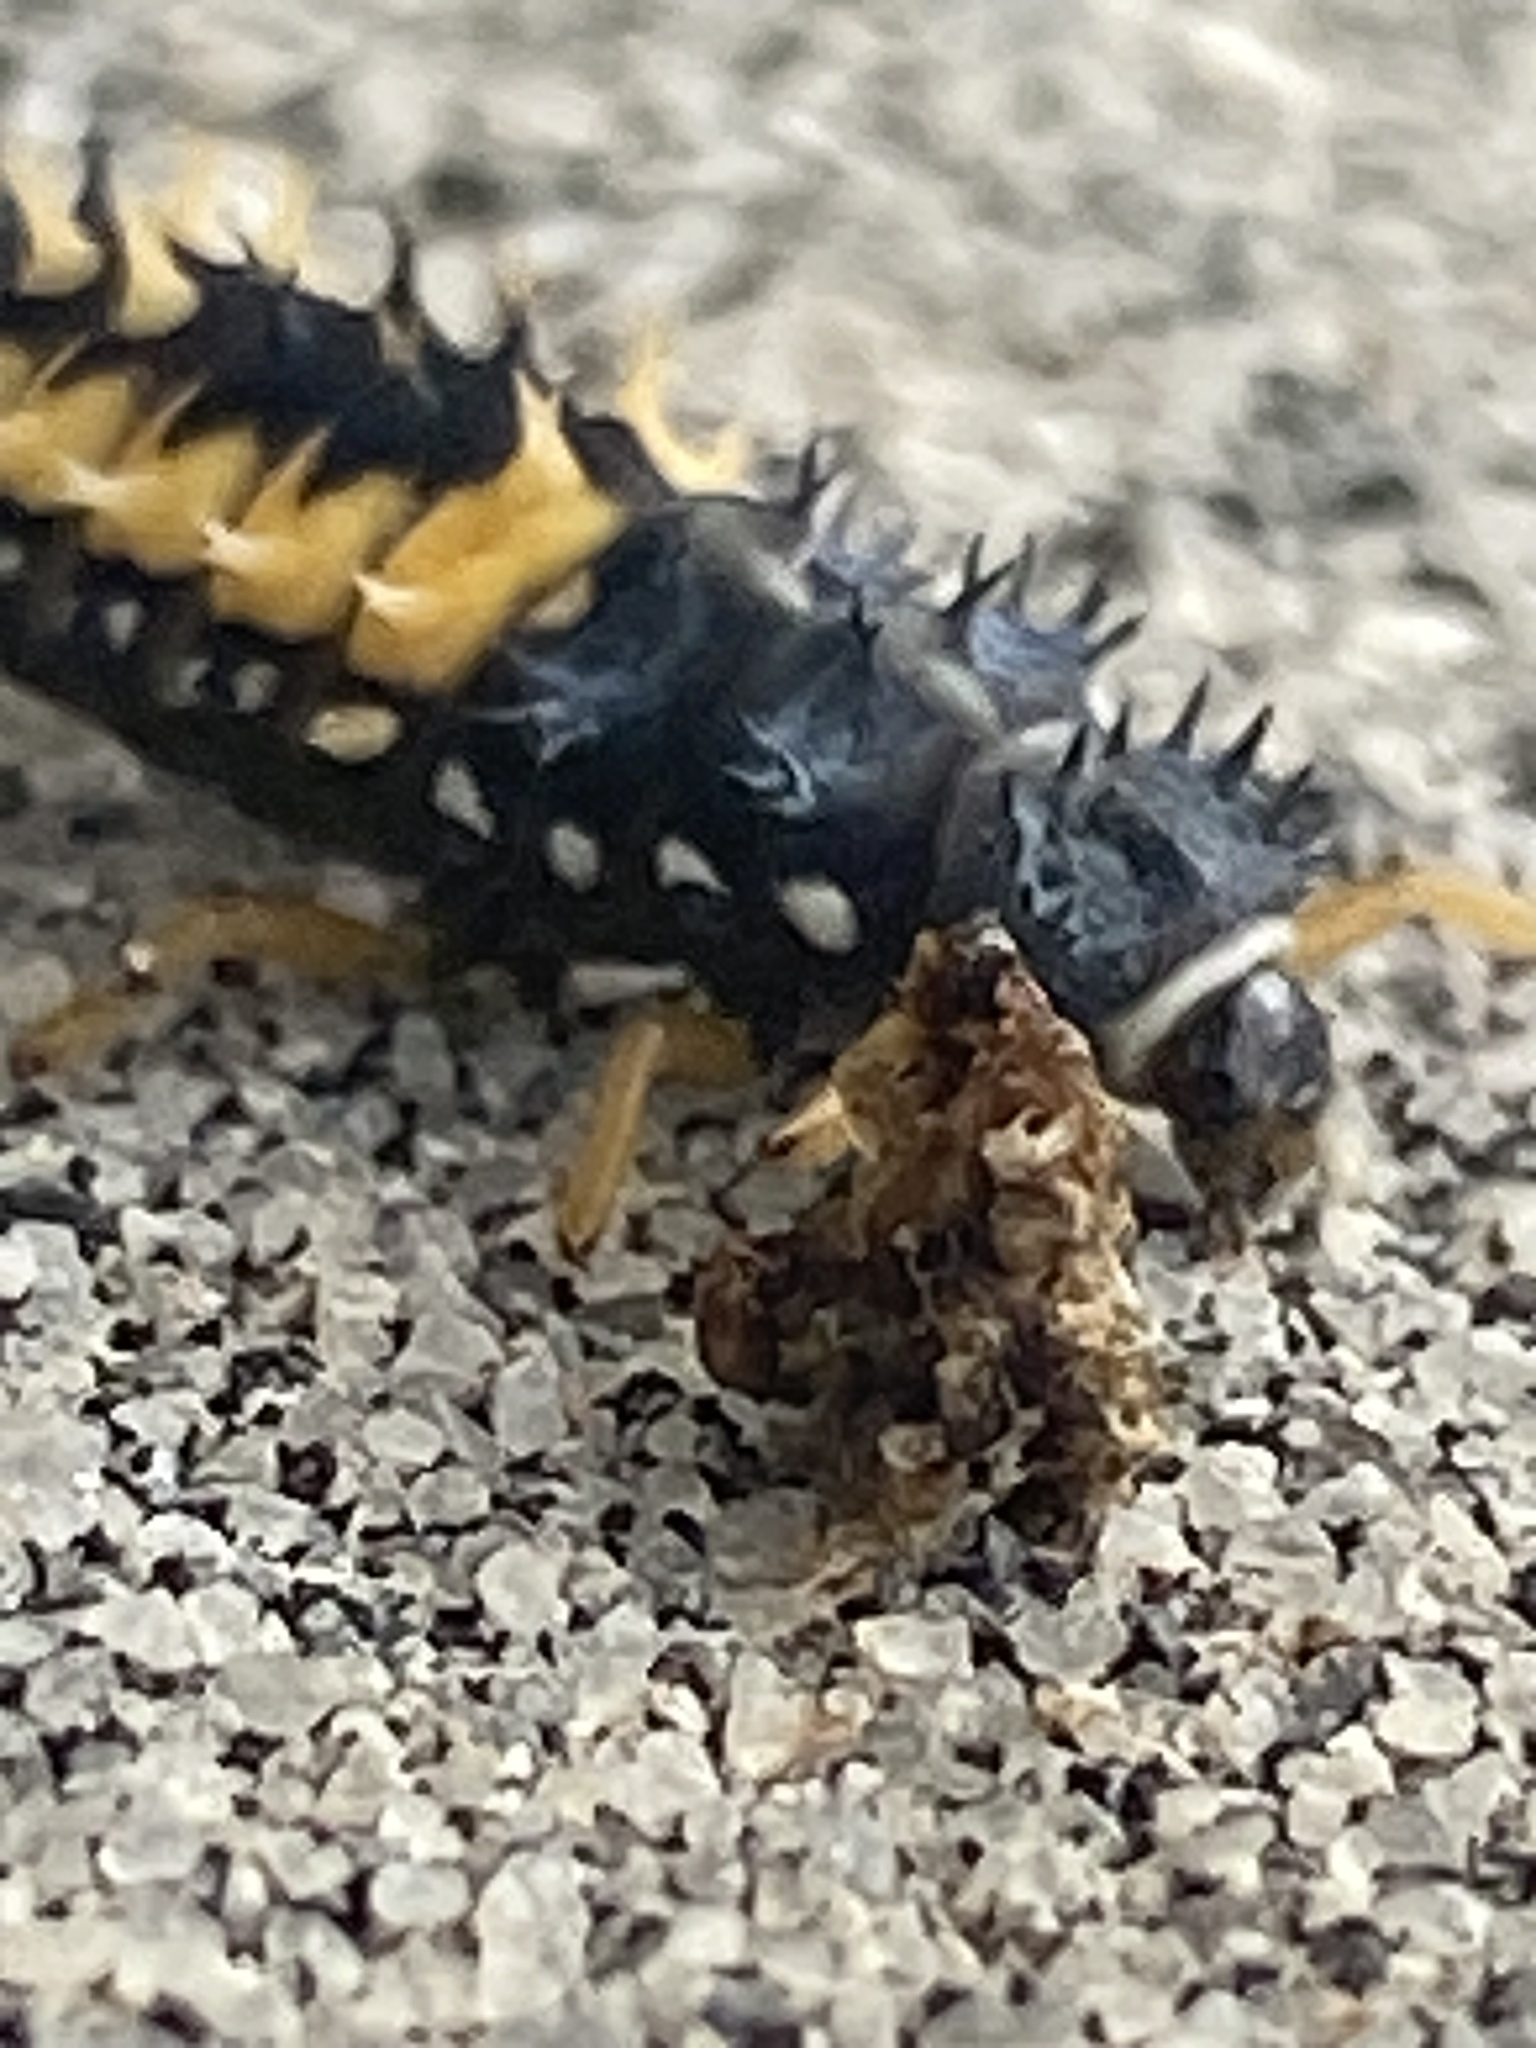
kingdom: Animalia
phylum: Arthropoda
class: Insecta
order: Coleoptera
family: Coccinellidae
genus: Harmonia
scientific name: Harmonia axyridis
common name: Harlequin ladybird
